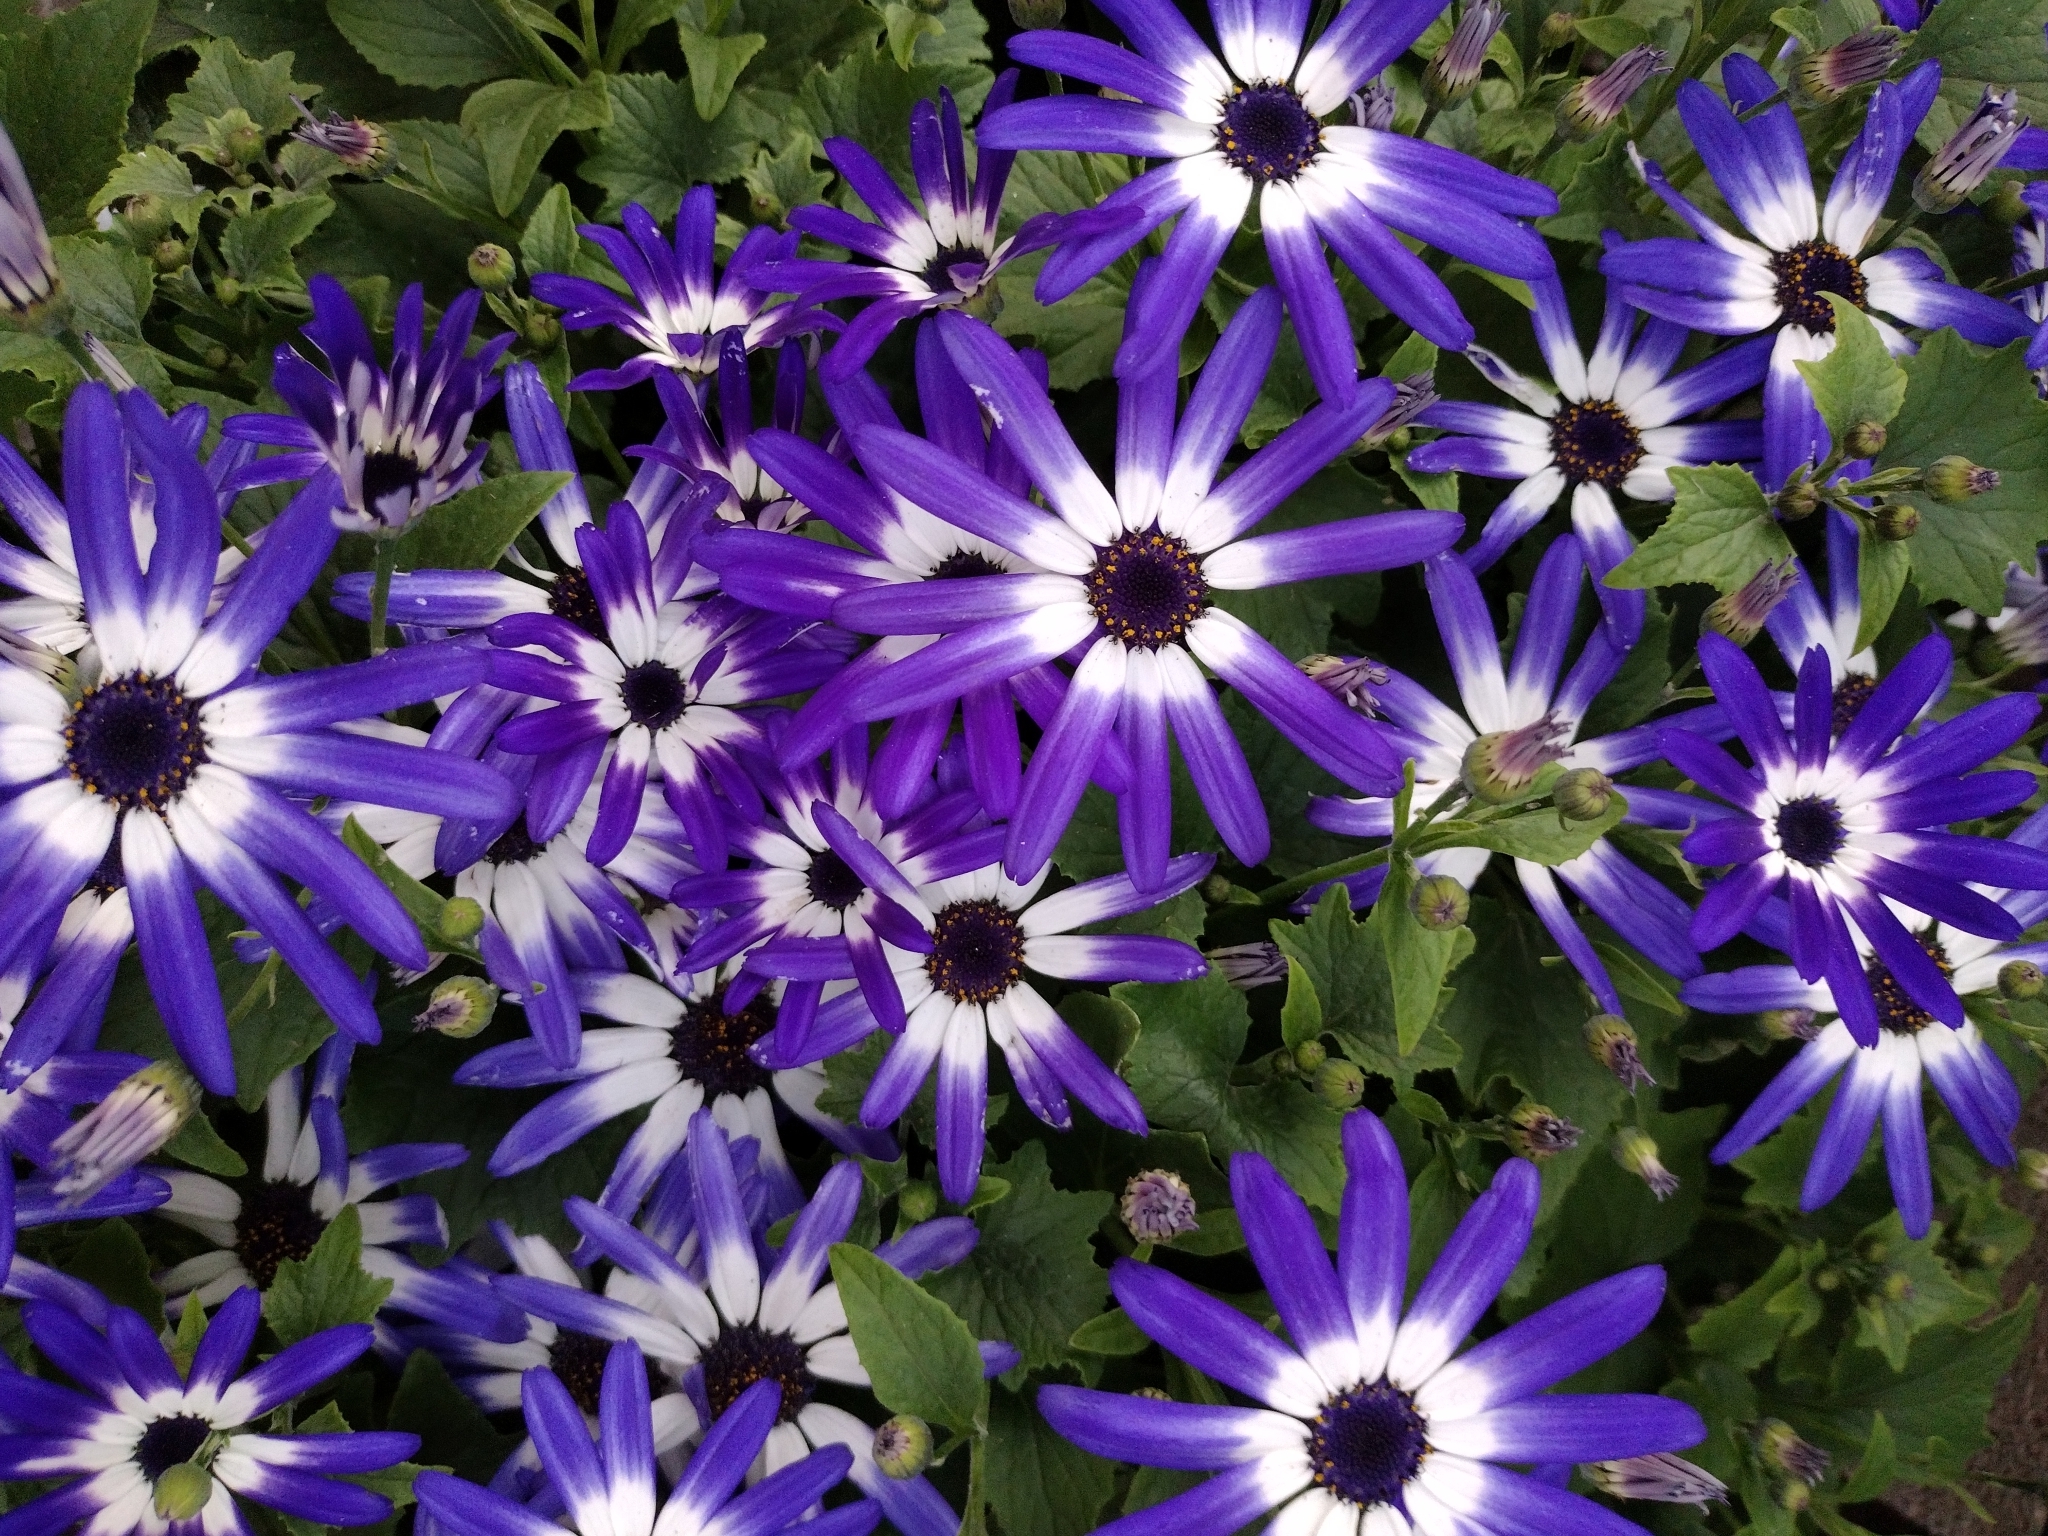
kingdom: Plantae
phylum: Tracheophyta
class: Magnoliopsida
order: Asterales
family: Asteraceae
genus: Pericallis
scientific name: Pericallis hybrida
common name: Cineraria
